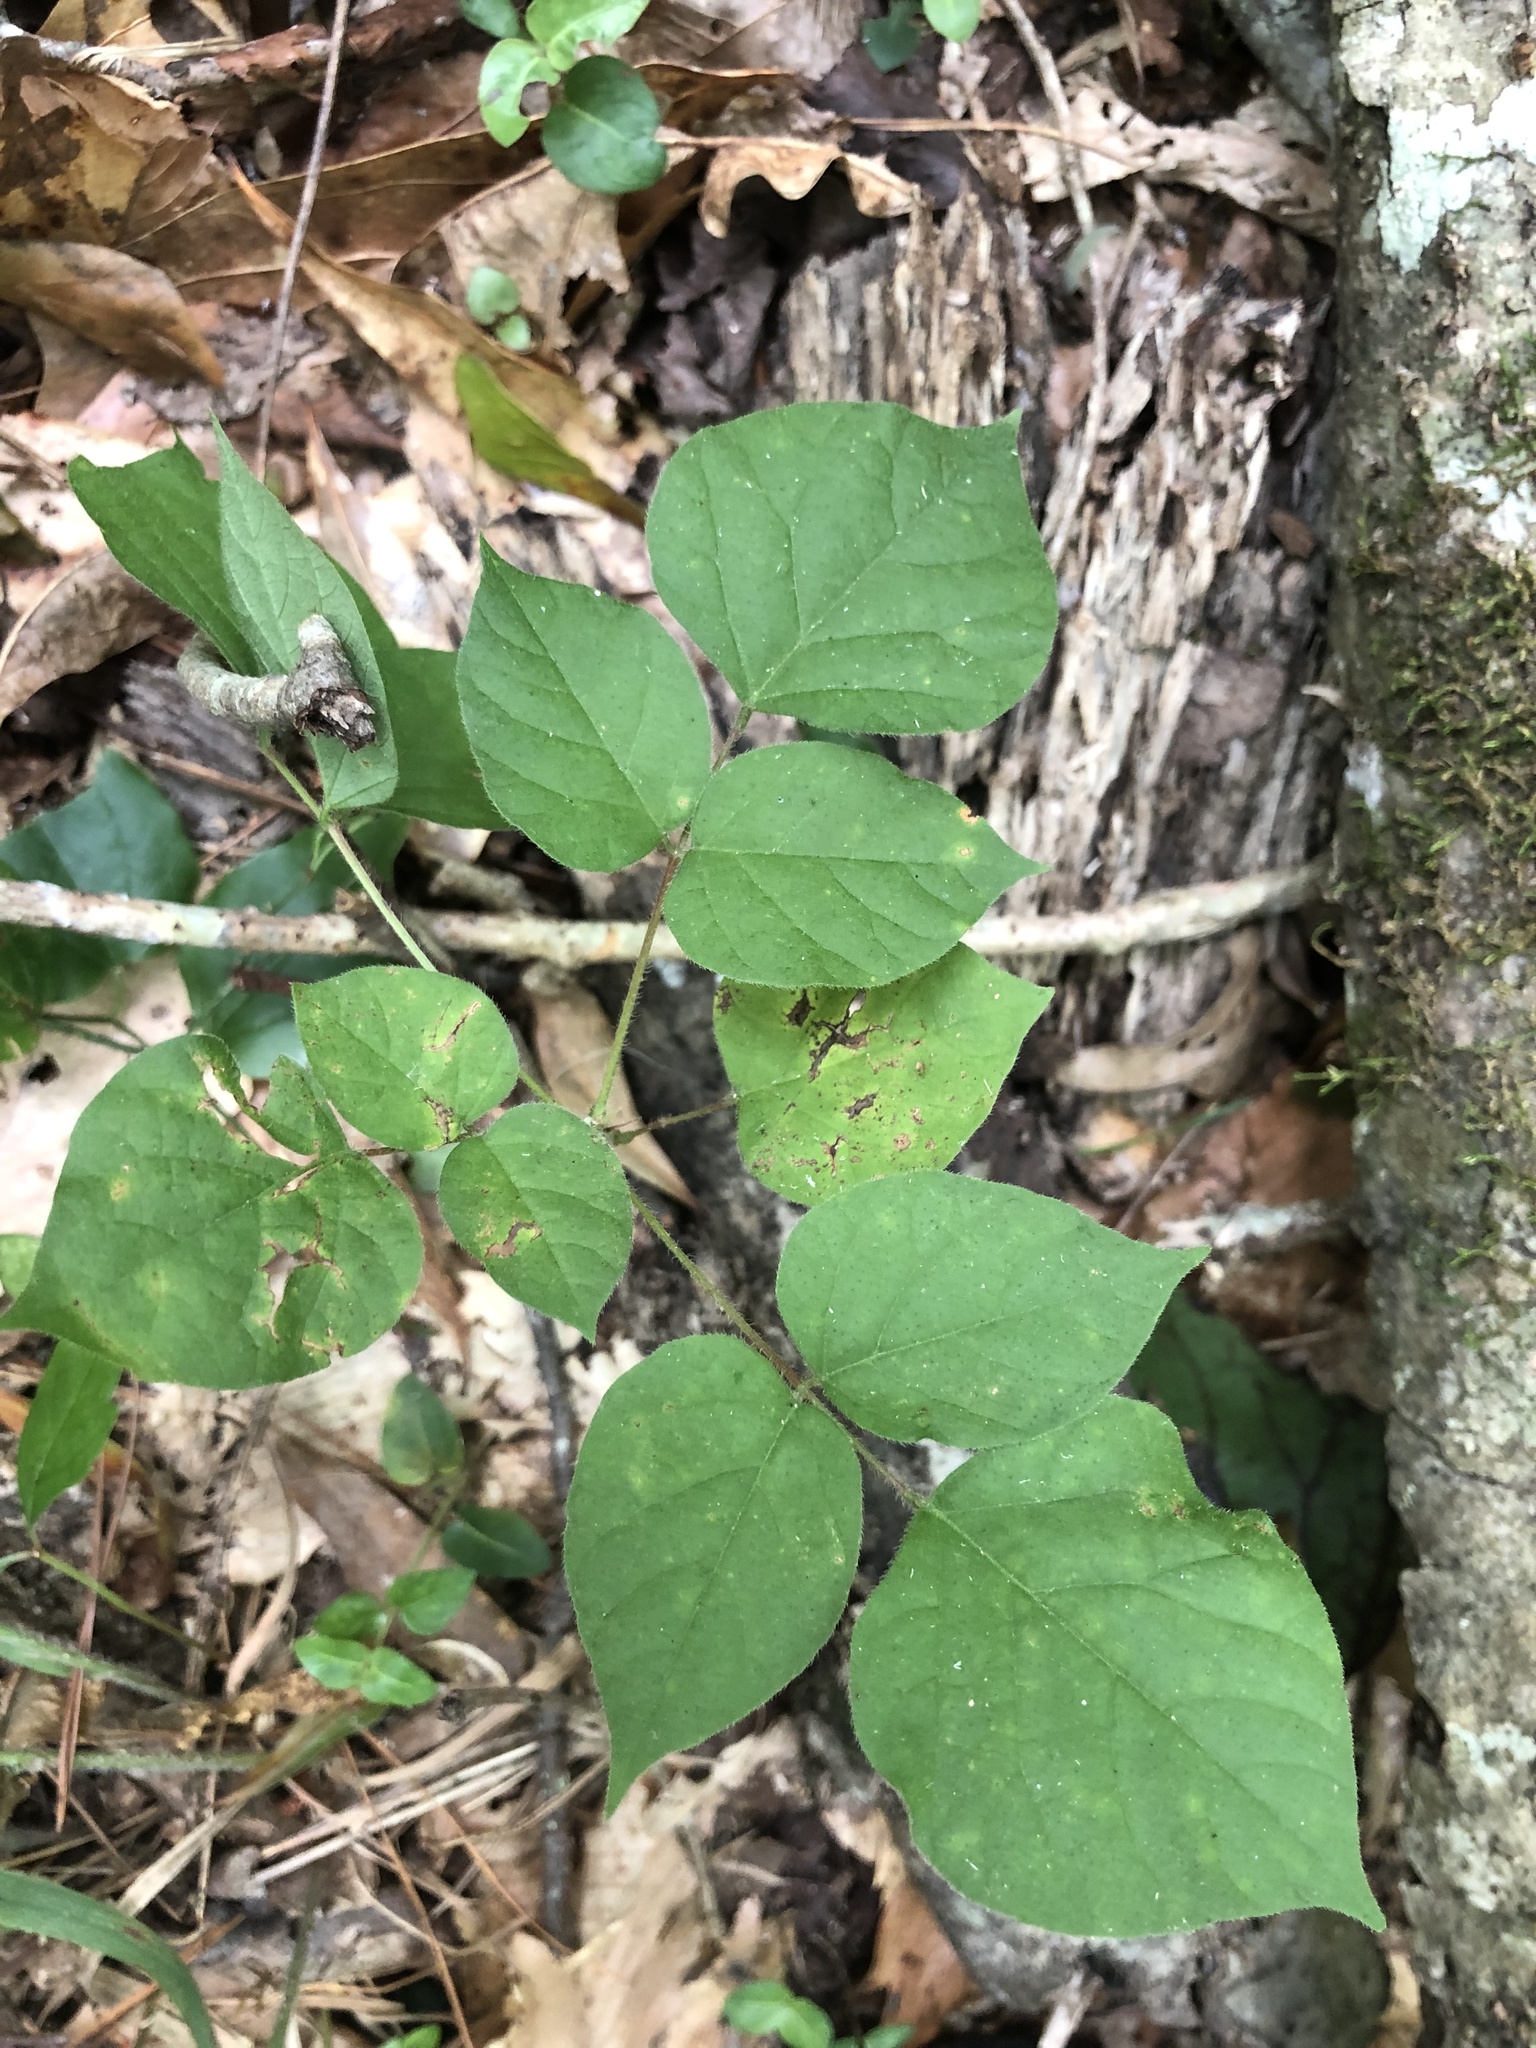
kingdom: Plantae
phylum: Tracheophyta
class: Magnoliopsida
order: Fabales
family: Fabaceae
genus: Hylodesmum
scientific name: Hylodesmum glutinosum
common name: Clustered-leaved tick-trefoil
